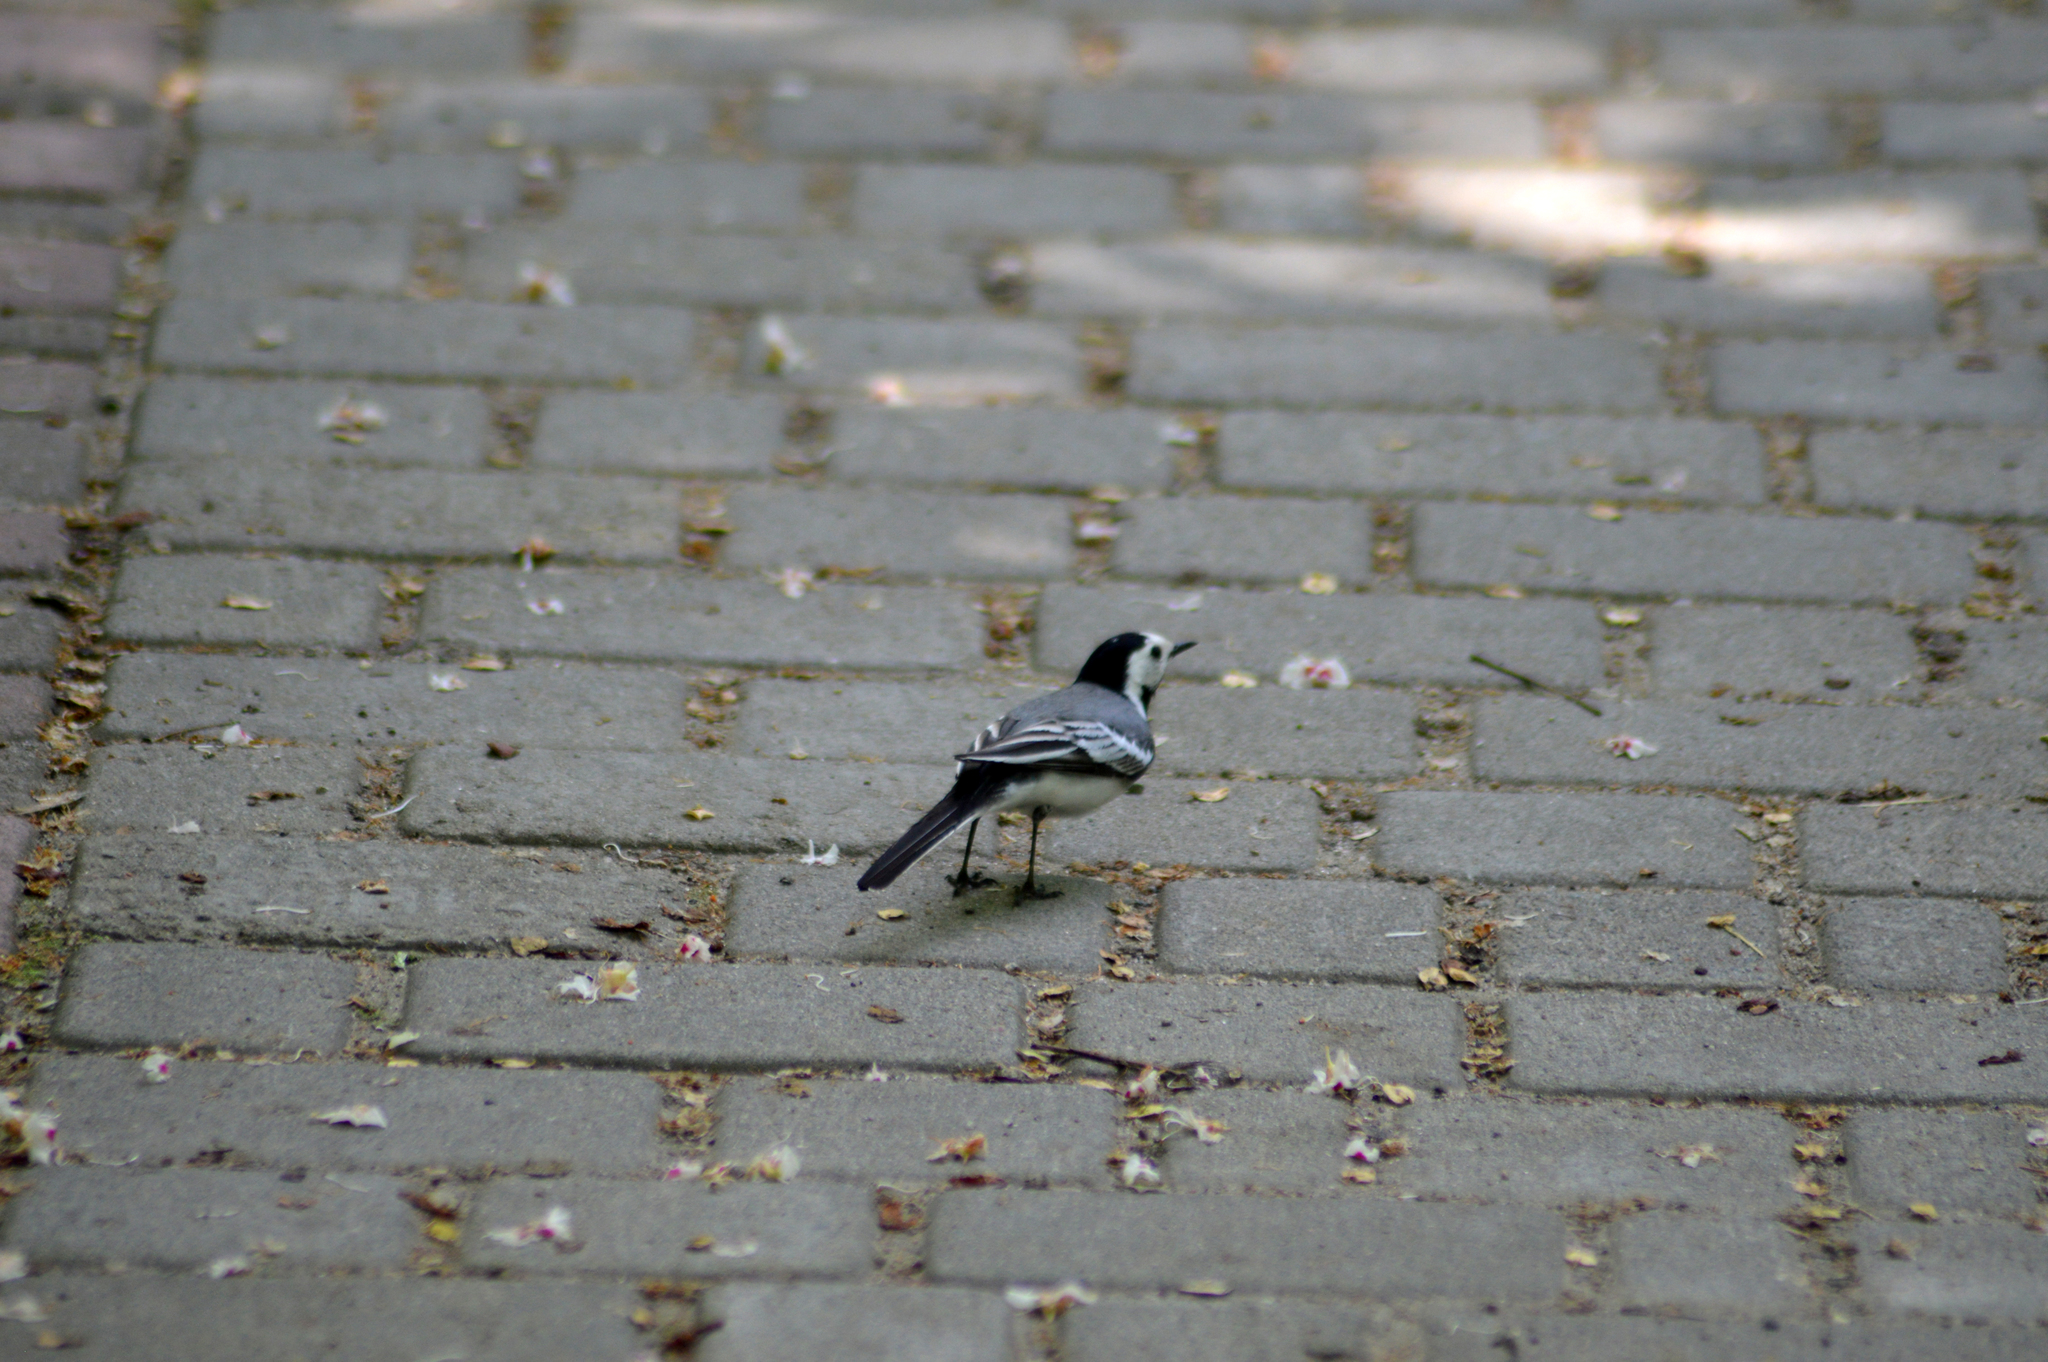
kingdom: Animalia
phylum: Chordata
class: Aves
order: Passeriformes
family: Motacillidae
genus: Motacilla
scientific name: Motacilla alba
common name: White wagtail
